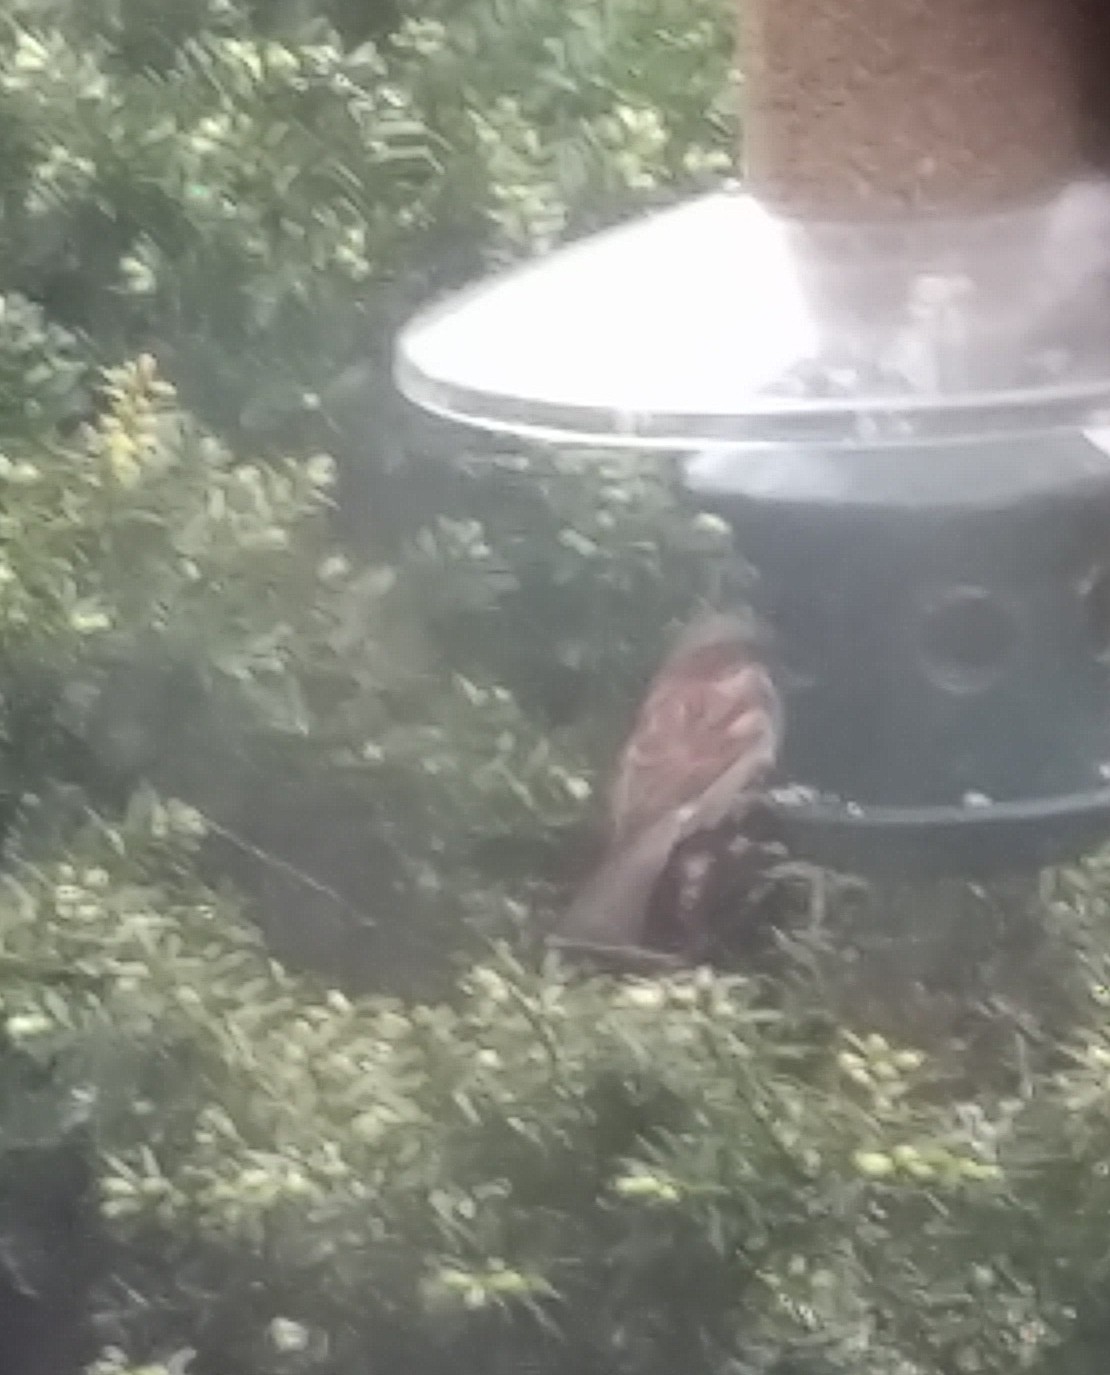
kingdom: Animalia
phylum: Chordata
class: Aves
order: Passeriformes
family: Passeridae
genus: Passer
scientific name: Passer domesticus
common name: House sparrow
